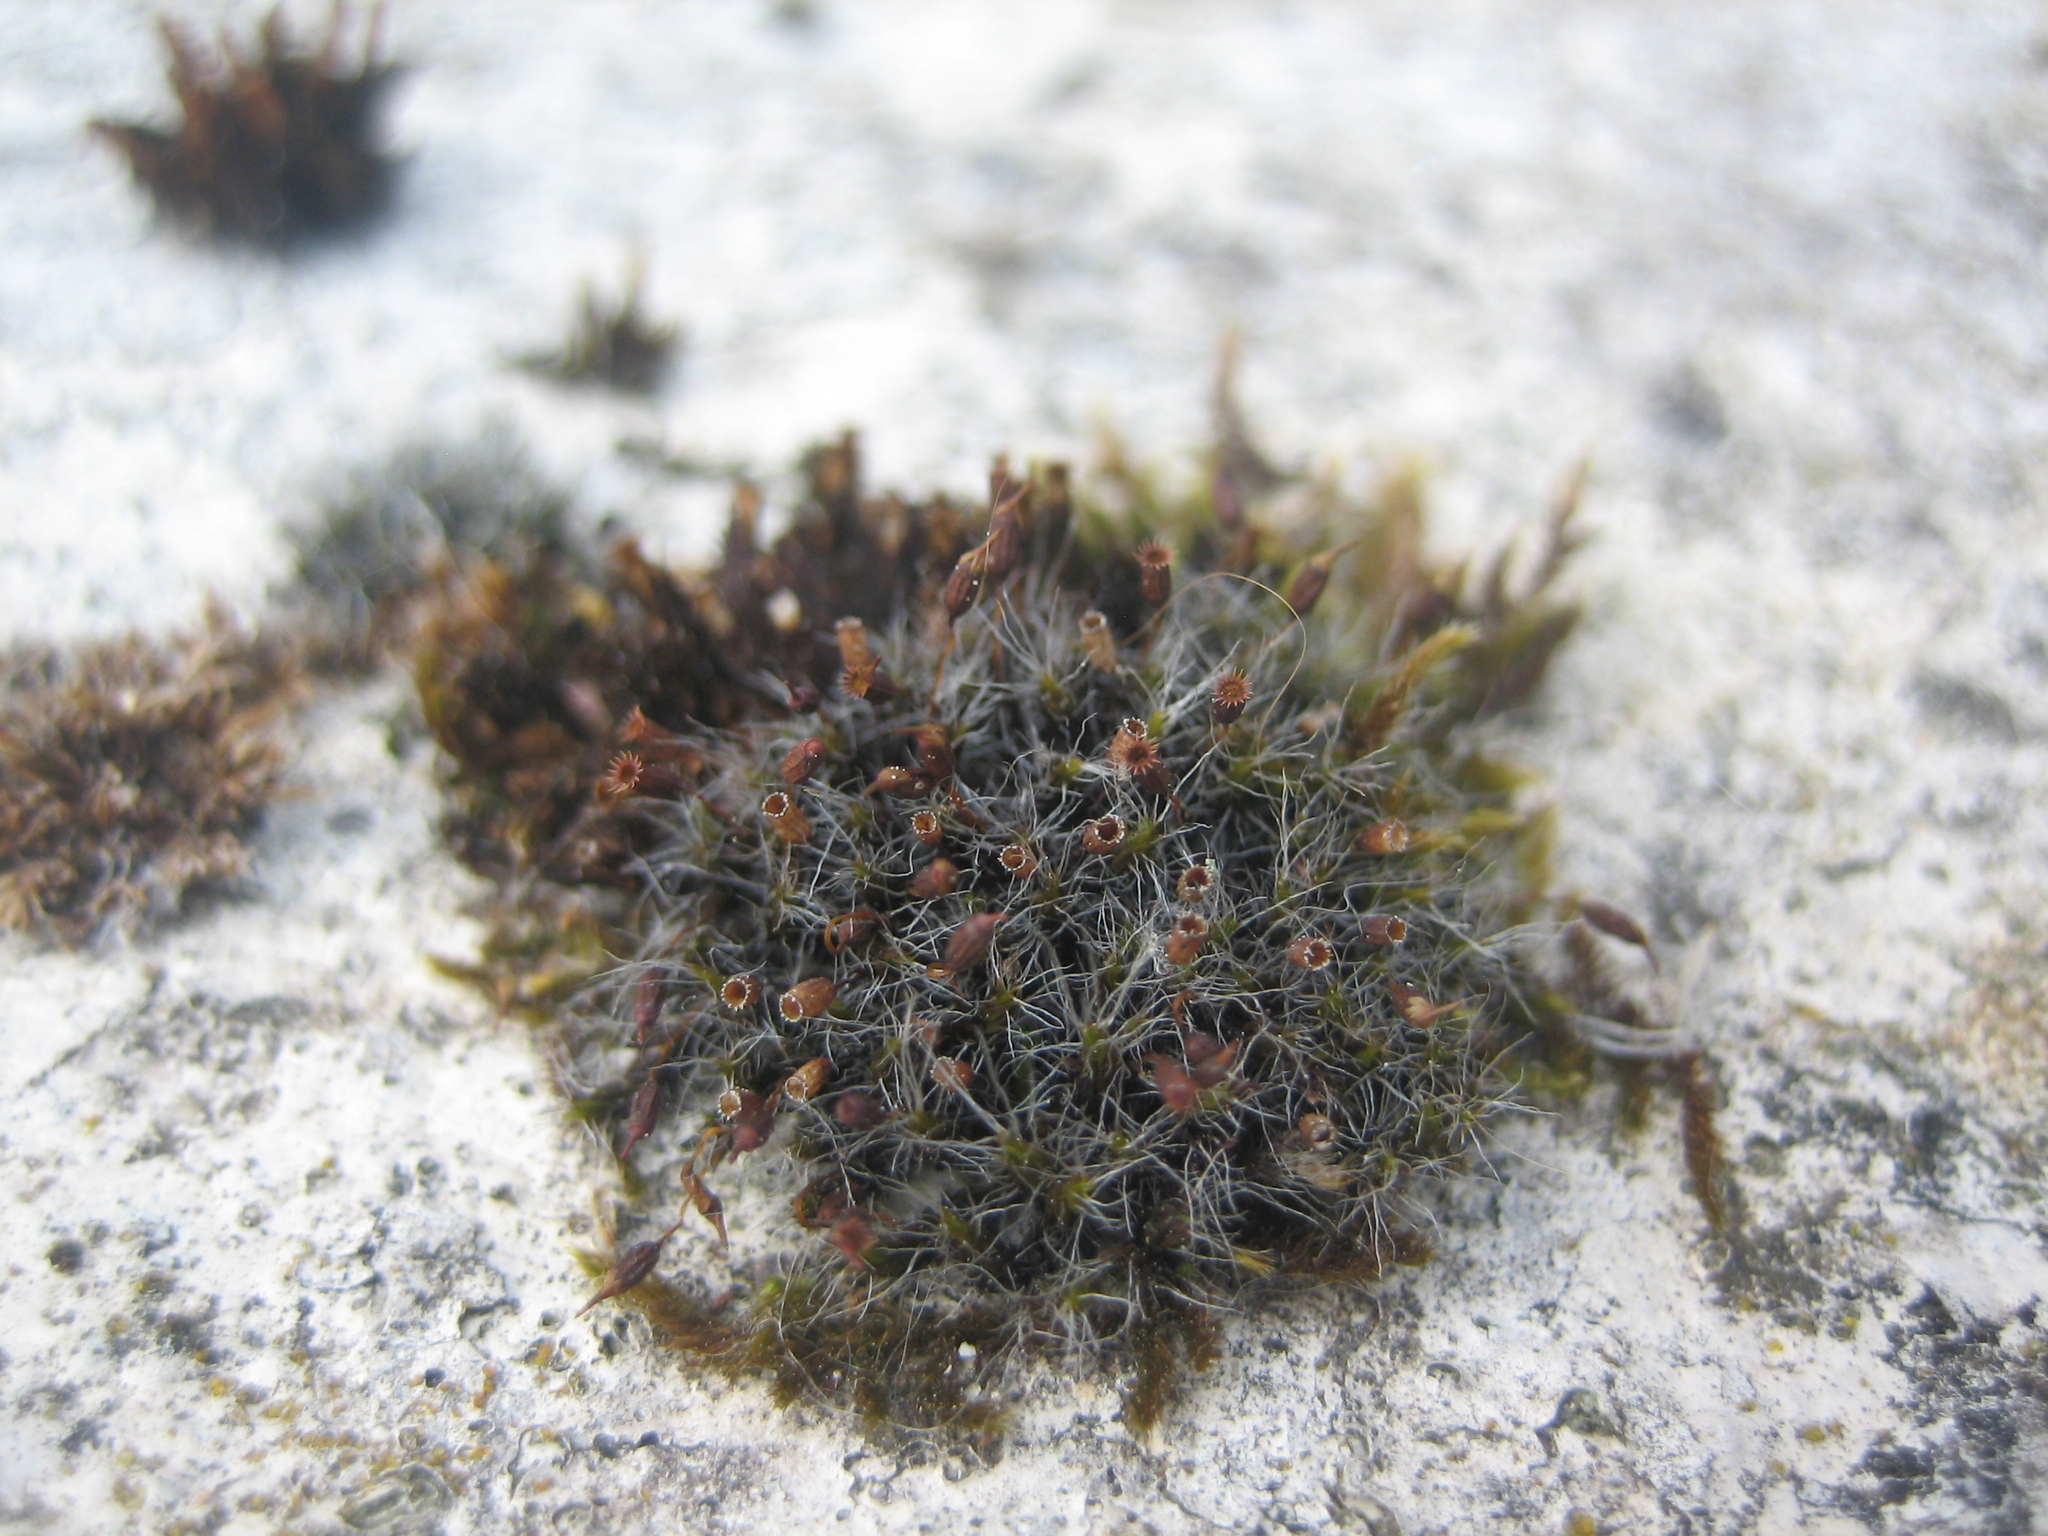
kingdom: Plantae
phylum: Bryophyta
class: Bryopsida
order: Grimmiales
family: Grimmiaceae
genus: Grimmia
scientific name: Grimmia pulvinata
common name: Grey-cushioned grimmia
